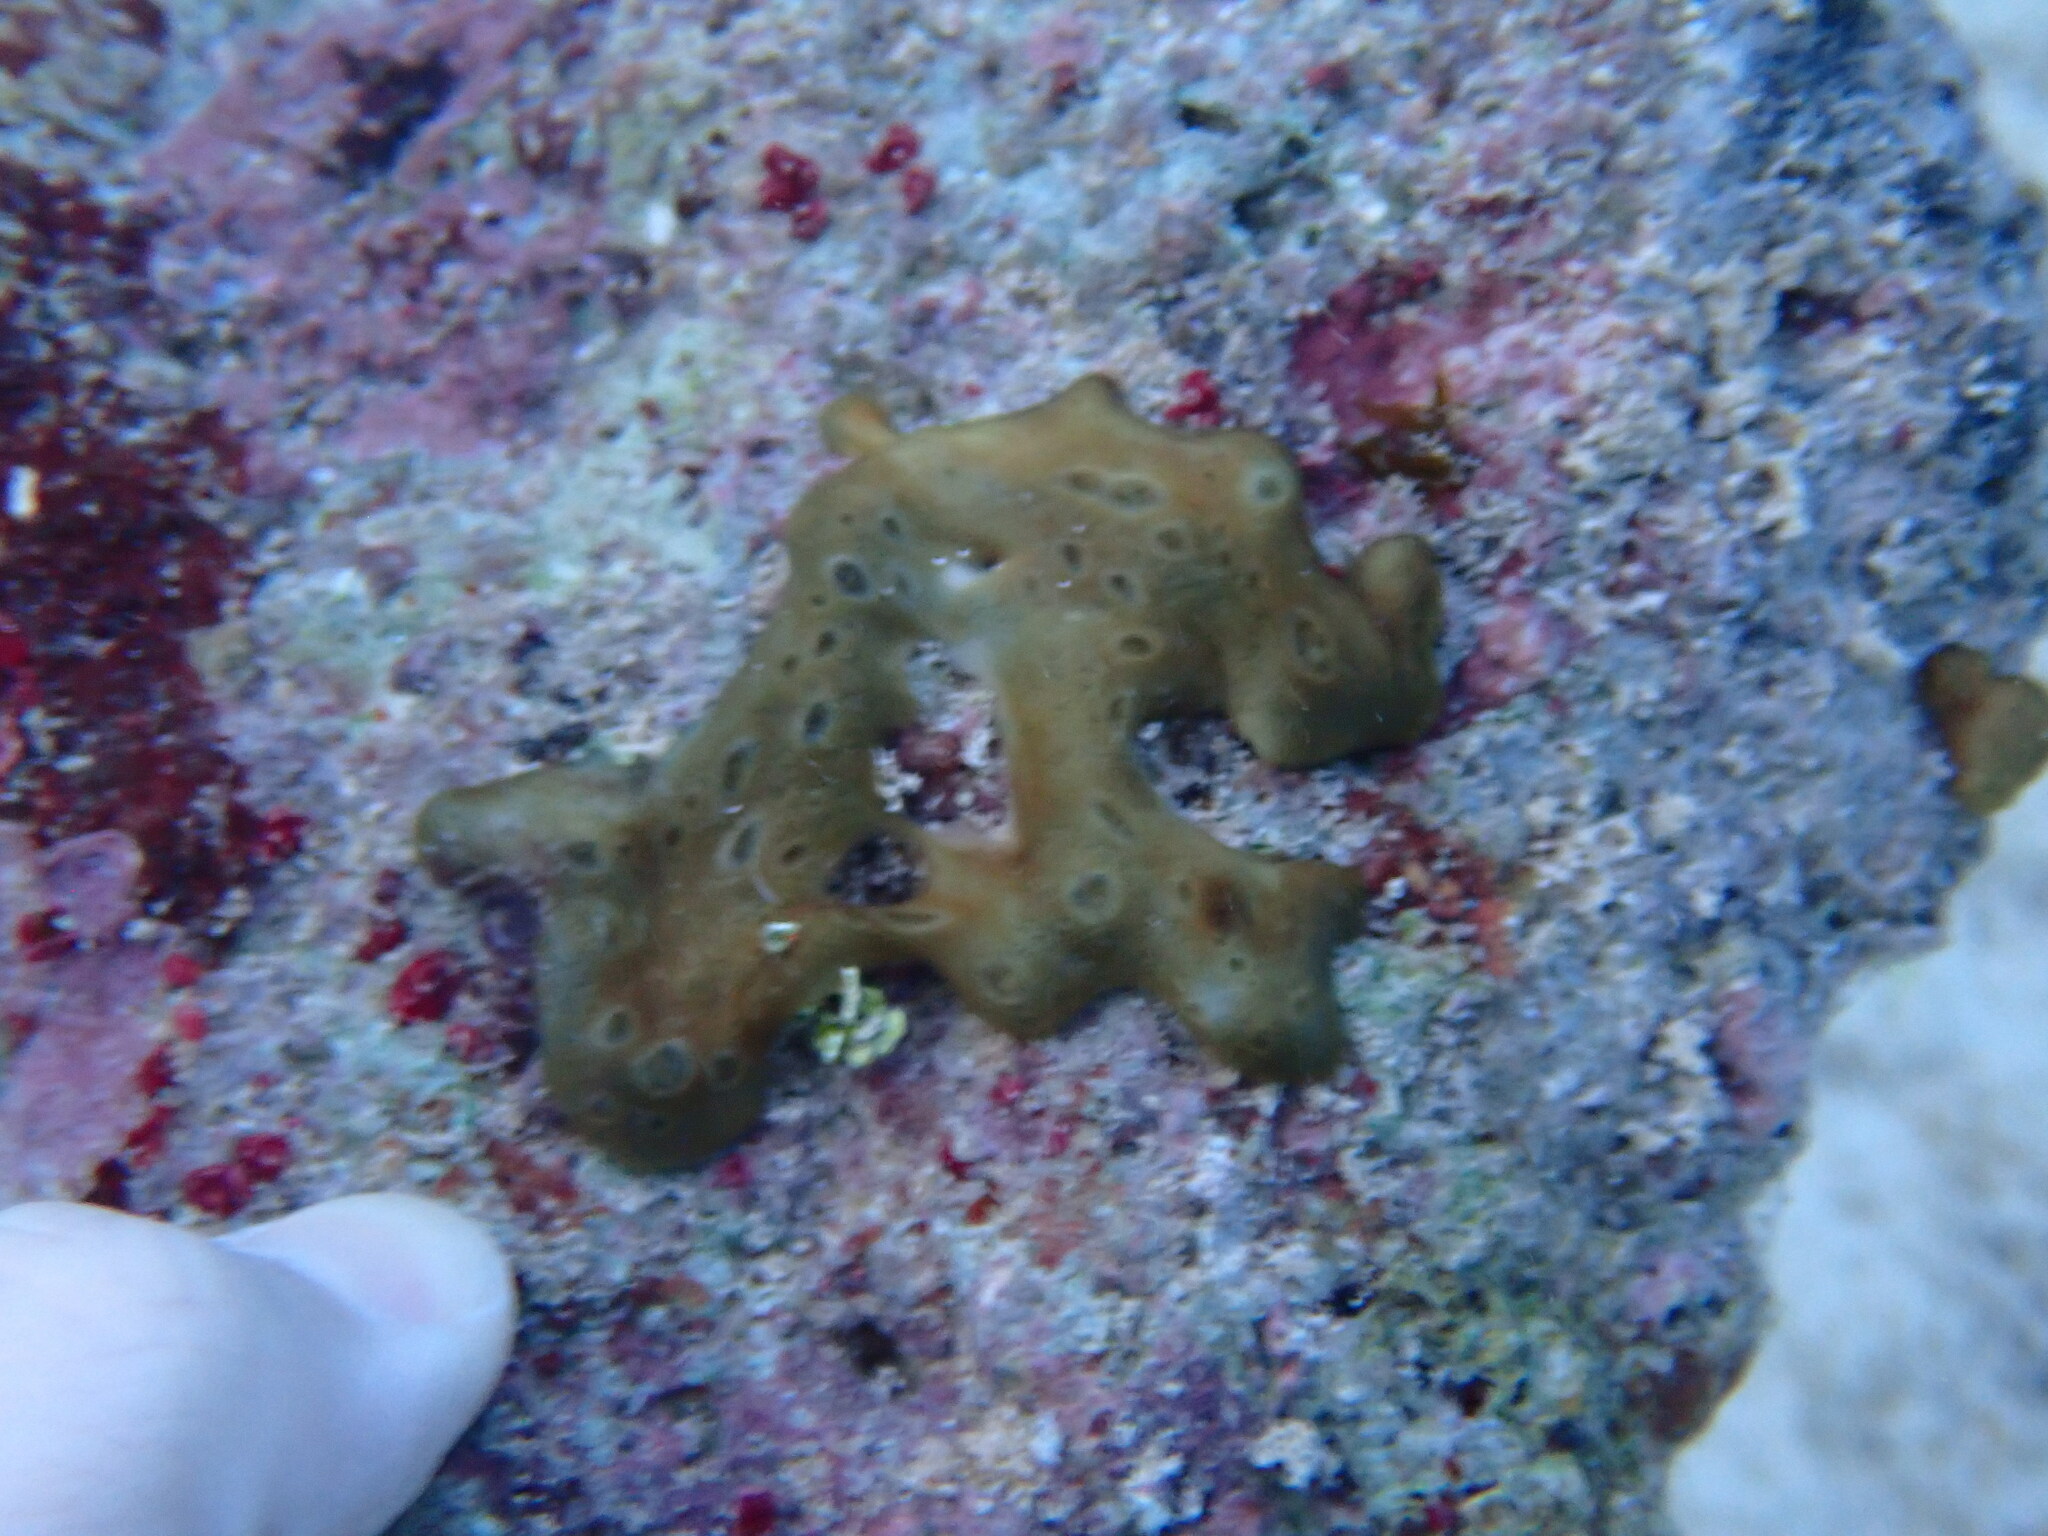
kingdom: Animalia
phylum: Porifera
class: Demospongiae
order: Chondrillida
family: Chondrillidae
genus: Chondrilla
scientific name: Chondrilla nucula
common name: Chicken liver sponge
